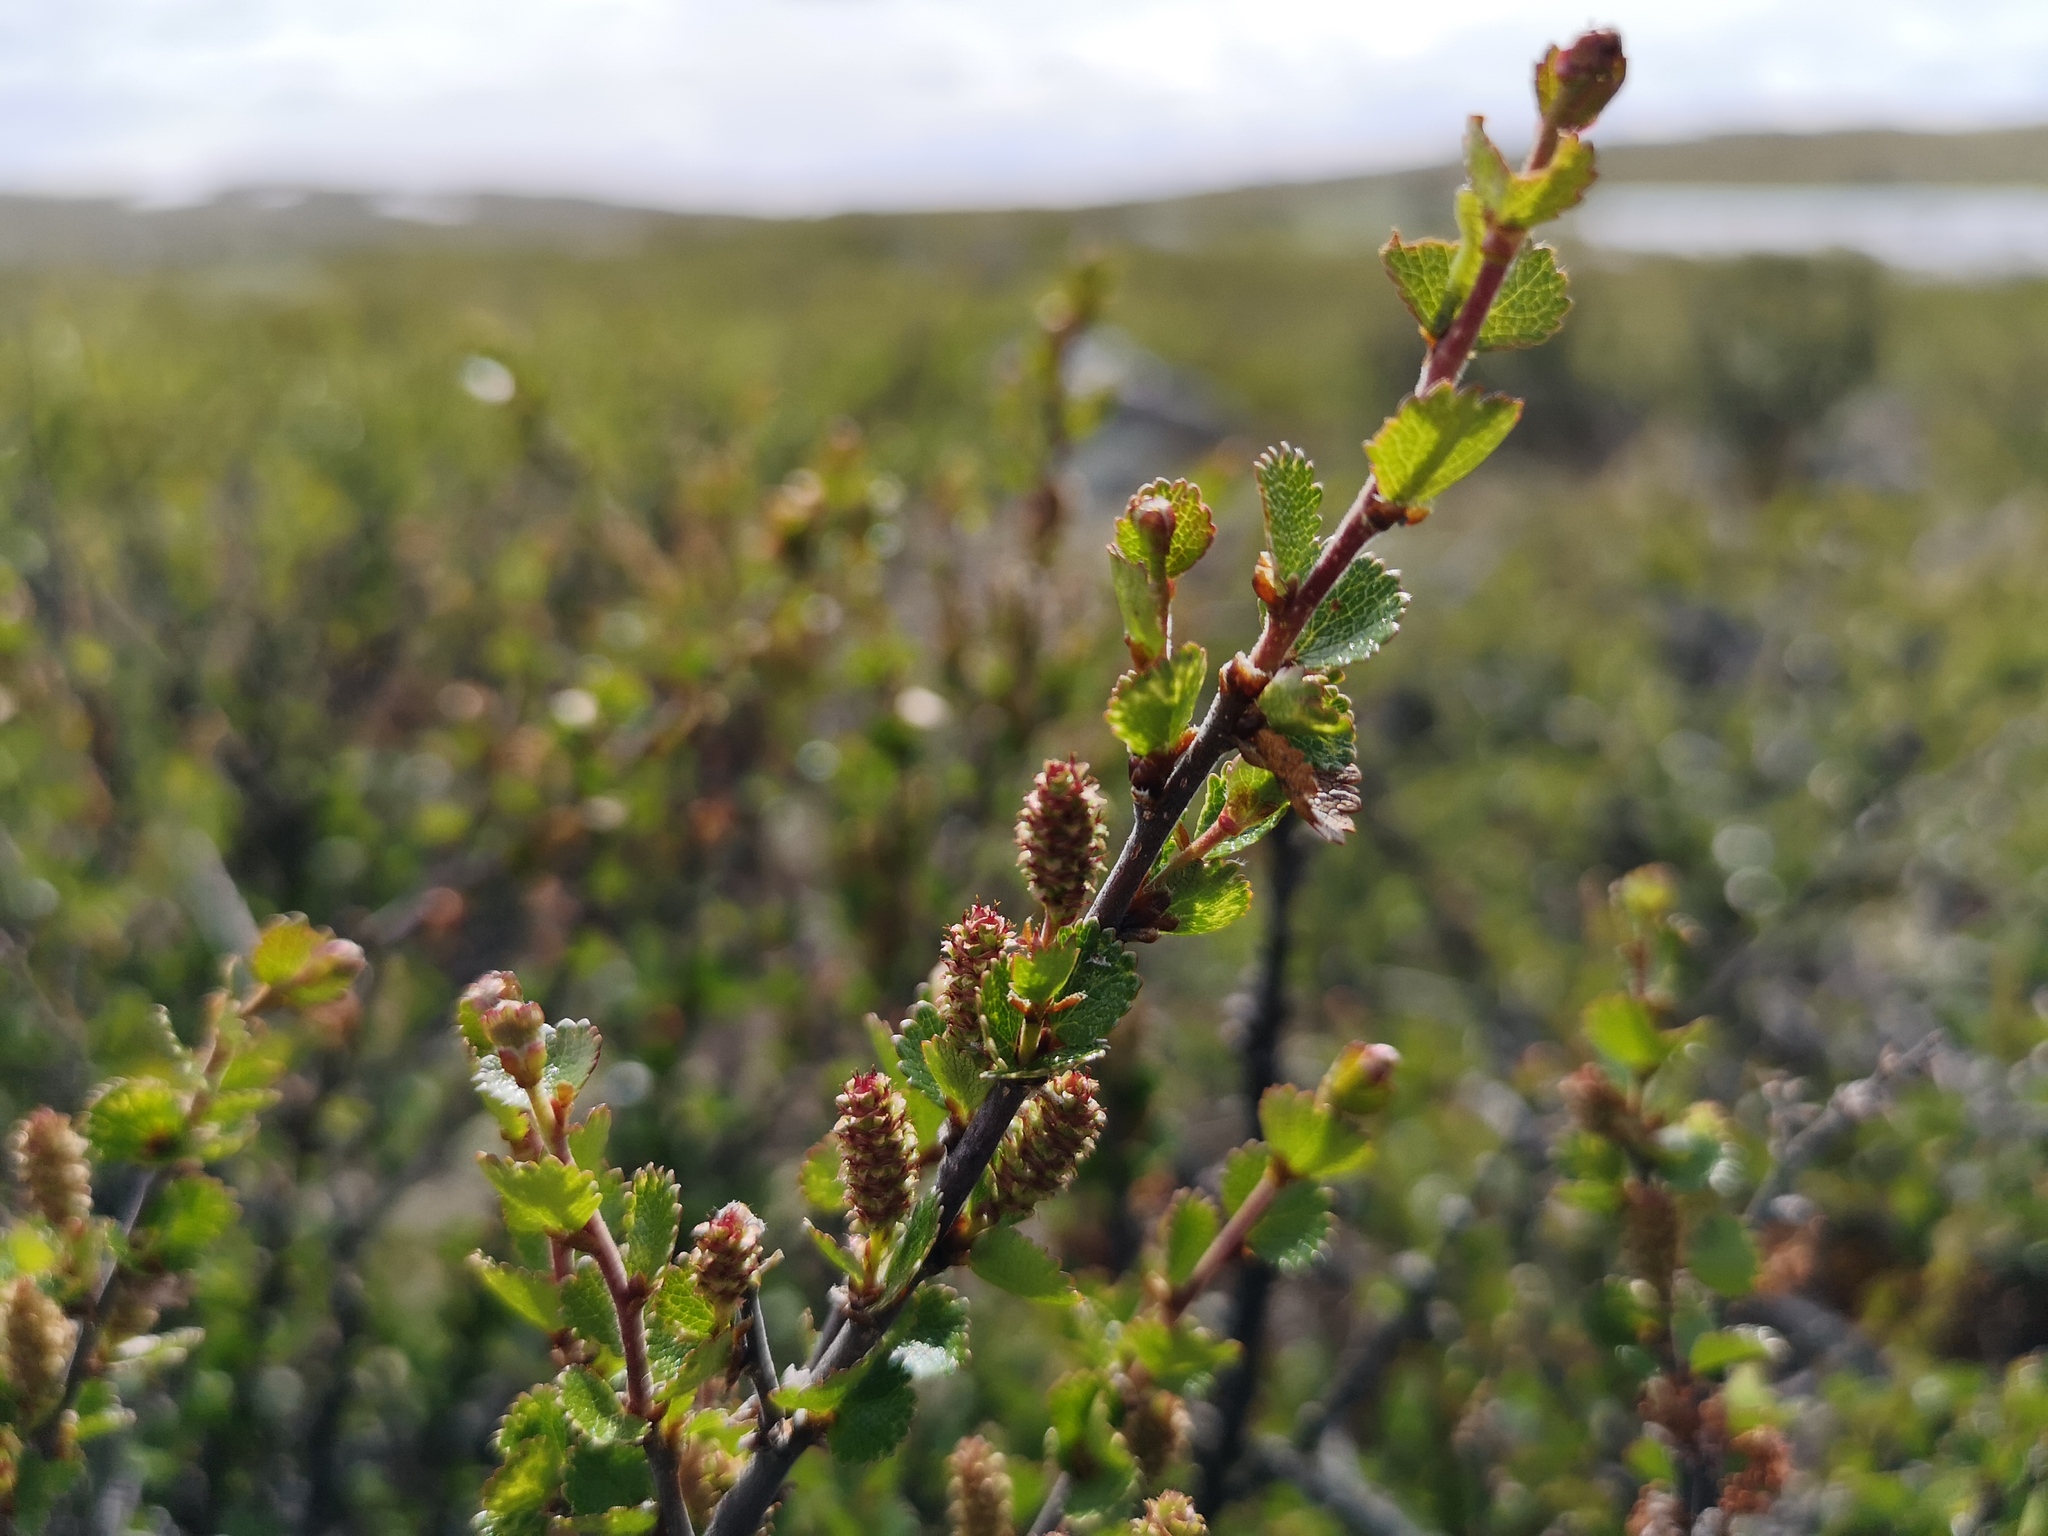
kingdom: Plantae
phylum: Tracheophyta
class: Magnoliopsida
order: Fagales
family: Betulaceae
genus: Betula
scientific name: Betula nana
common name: Arctic dwarf birch
